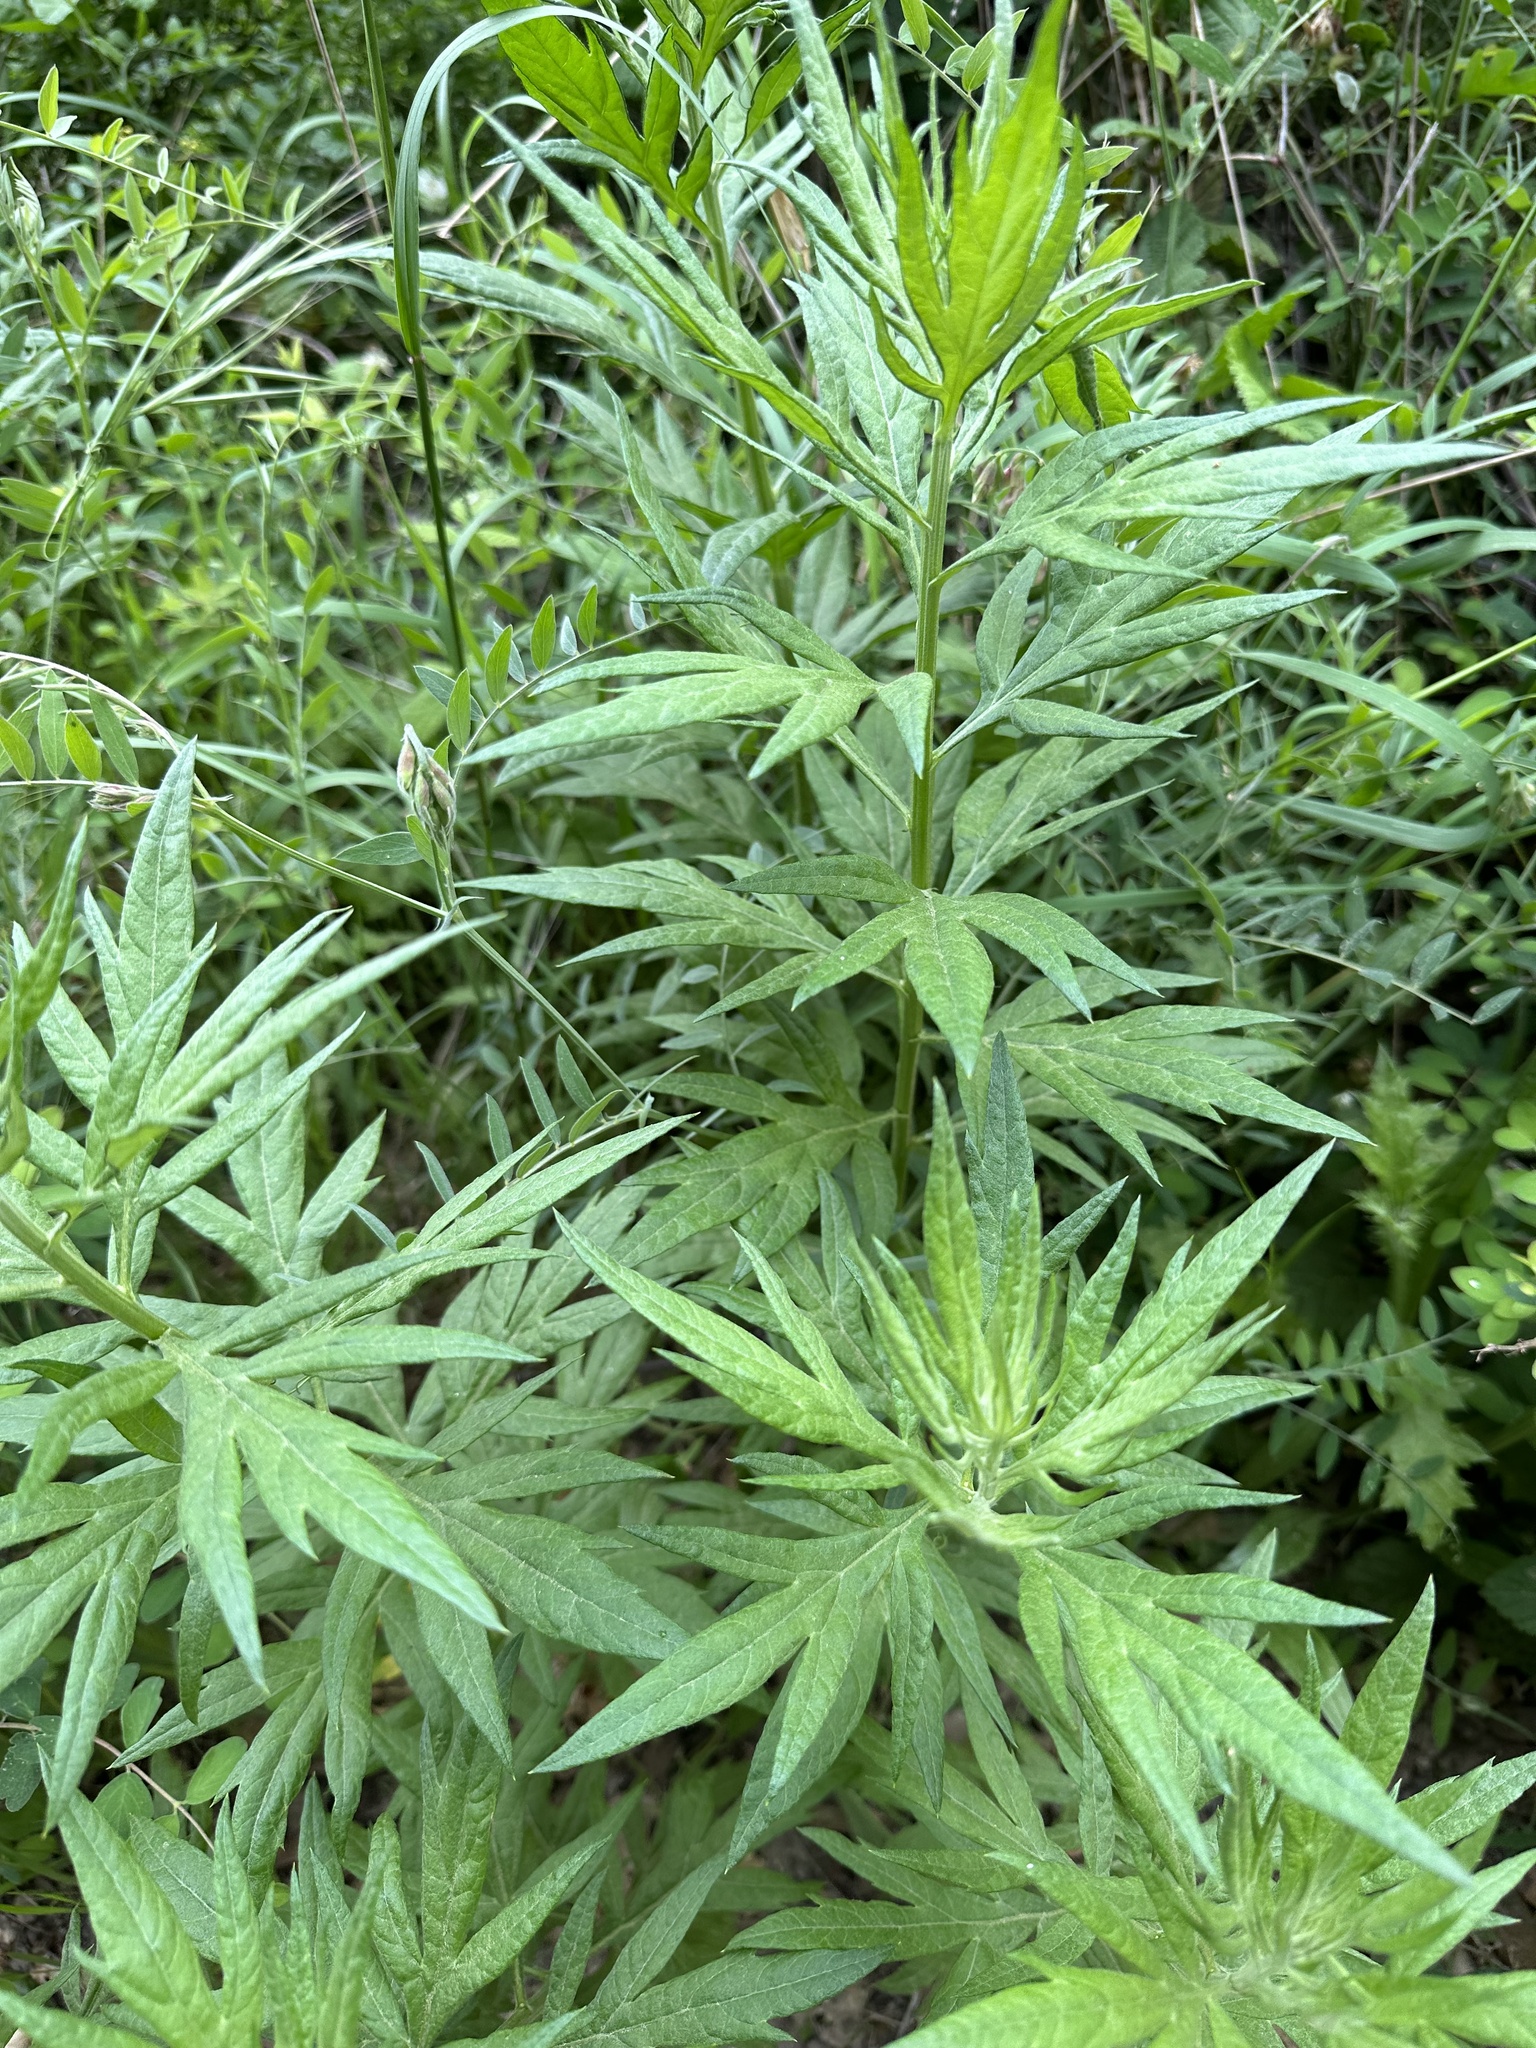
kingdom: Plantae
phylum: Tracheophyta
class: Magnoliopsida
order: Asterales
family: Asteraceae
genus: Artemisia
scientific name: Artemisia douglasiana
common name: Northwest mugwort
